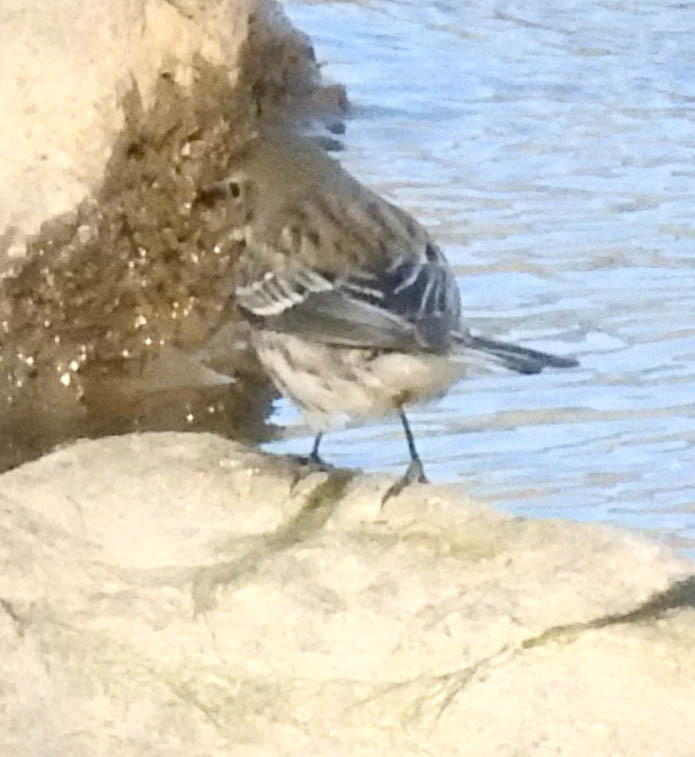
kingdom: Animalia
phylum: Chordata
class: Aves
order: Passeriformes
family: Parulidae
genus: Setophaga
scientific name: Setophaga coronata
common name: Myrtle warbler
